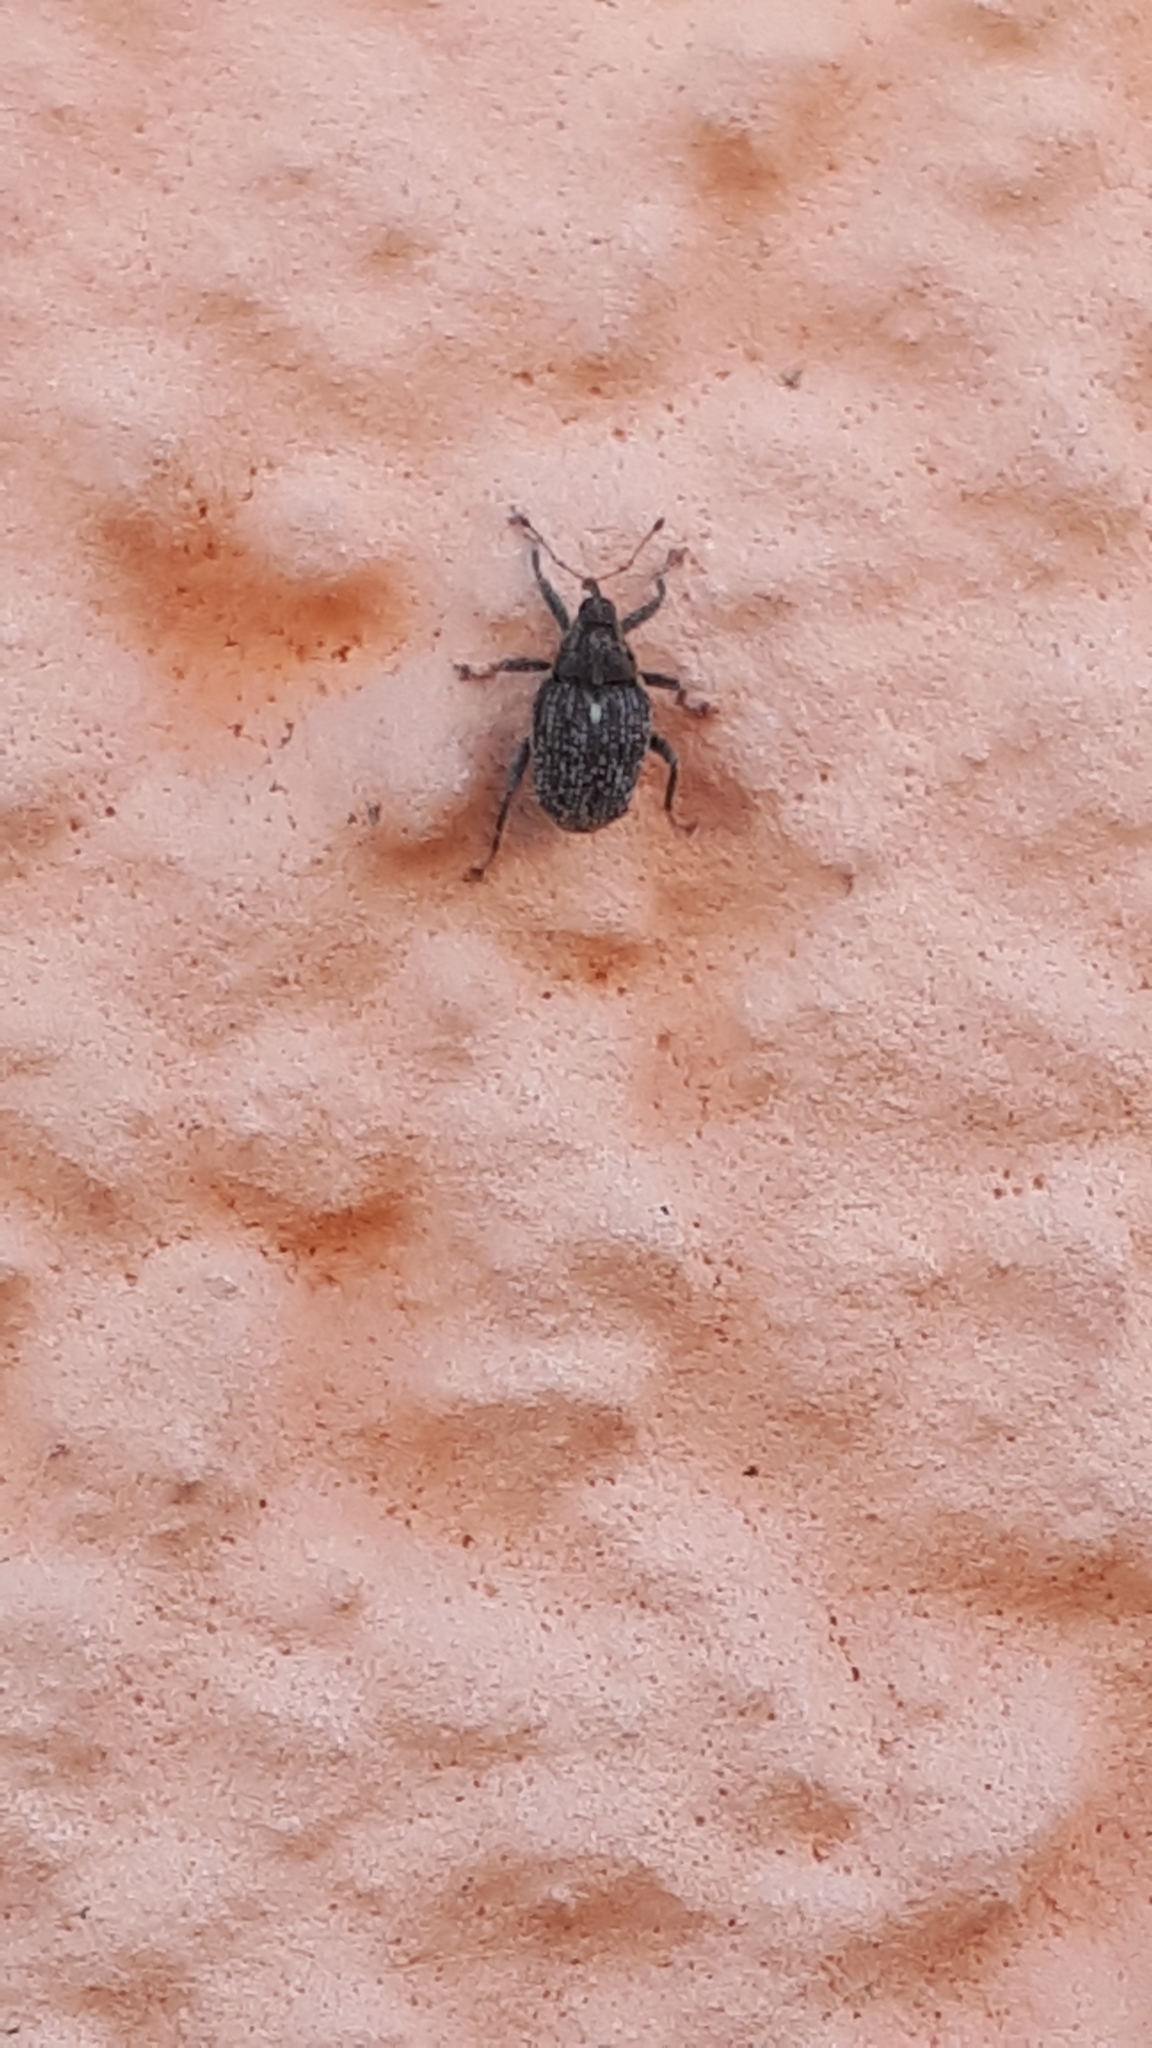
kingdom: Animalia
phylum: Arthropoda
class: Insecta
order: Coleoptera
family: Curculionidae
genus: Ceutorhynchus
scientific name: Ceutorhynchus pallidactylus
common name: Cabbage stem weavil
